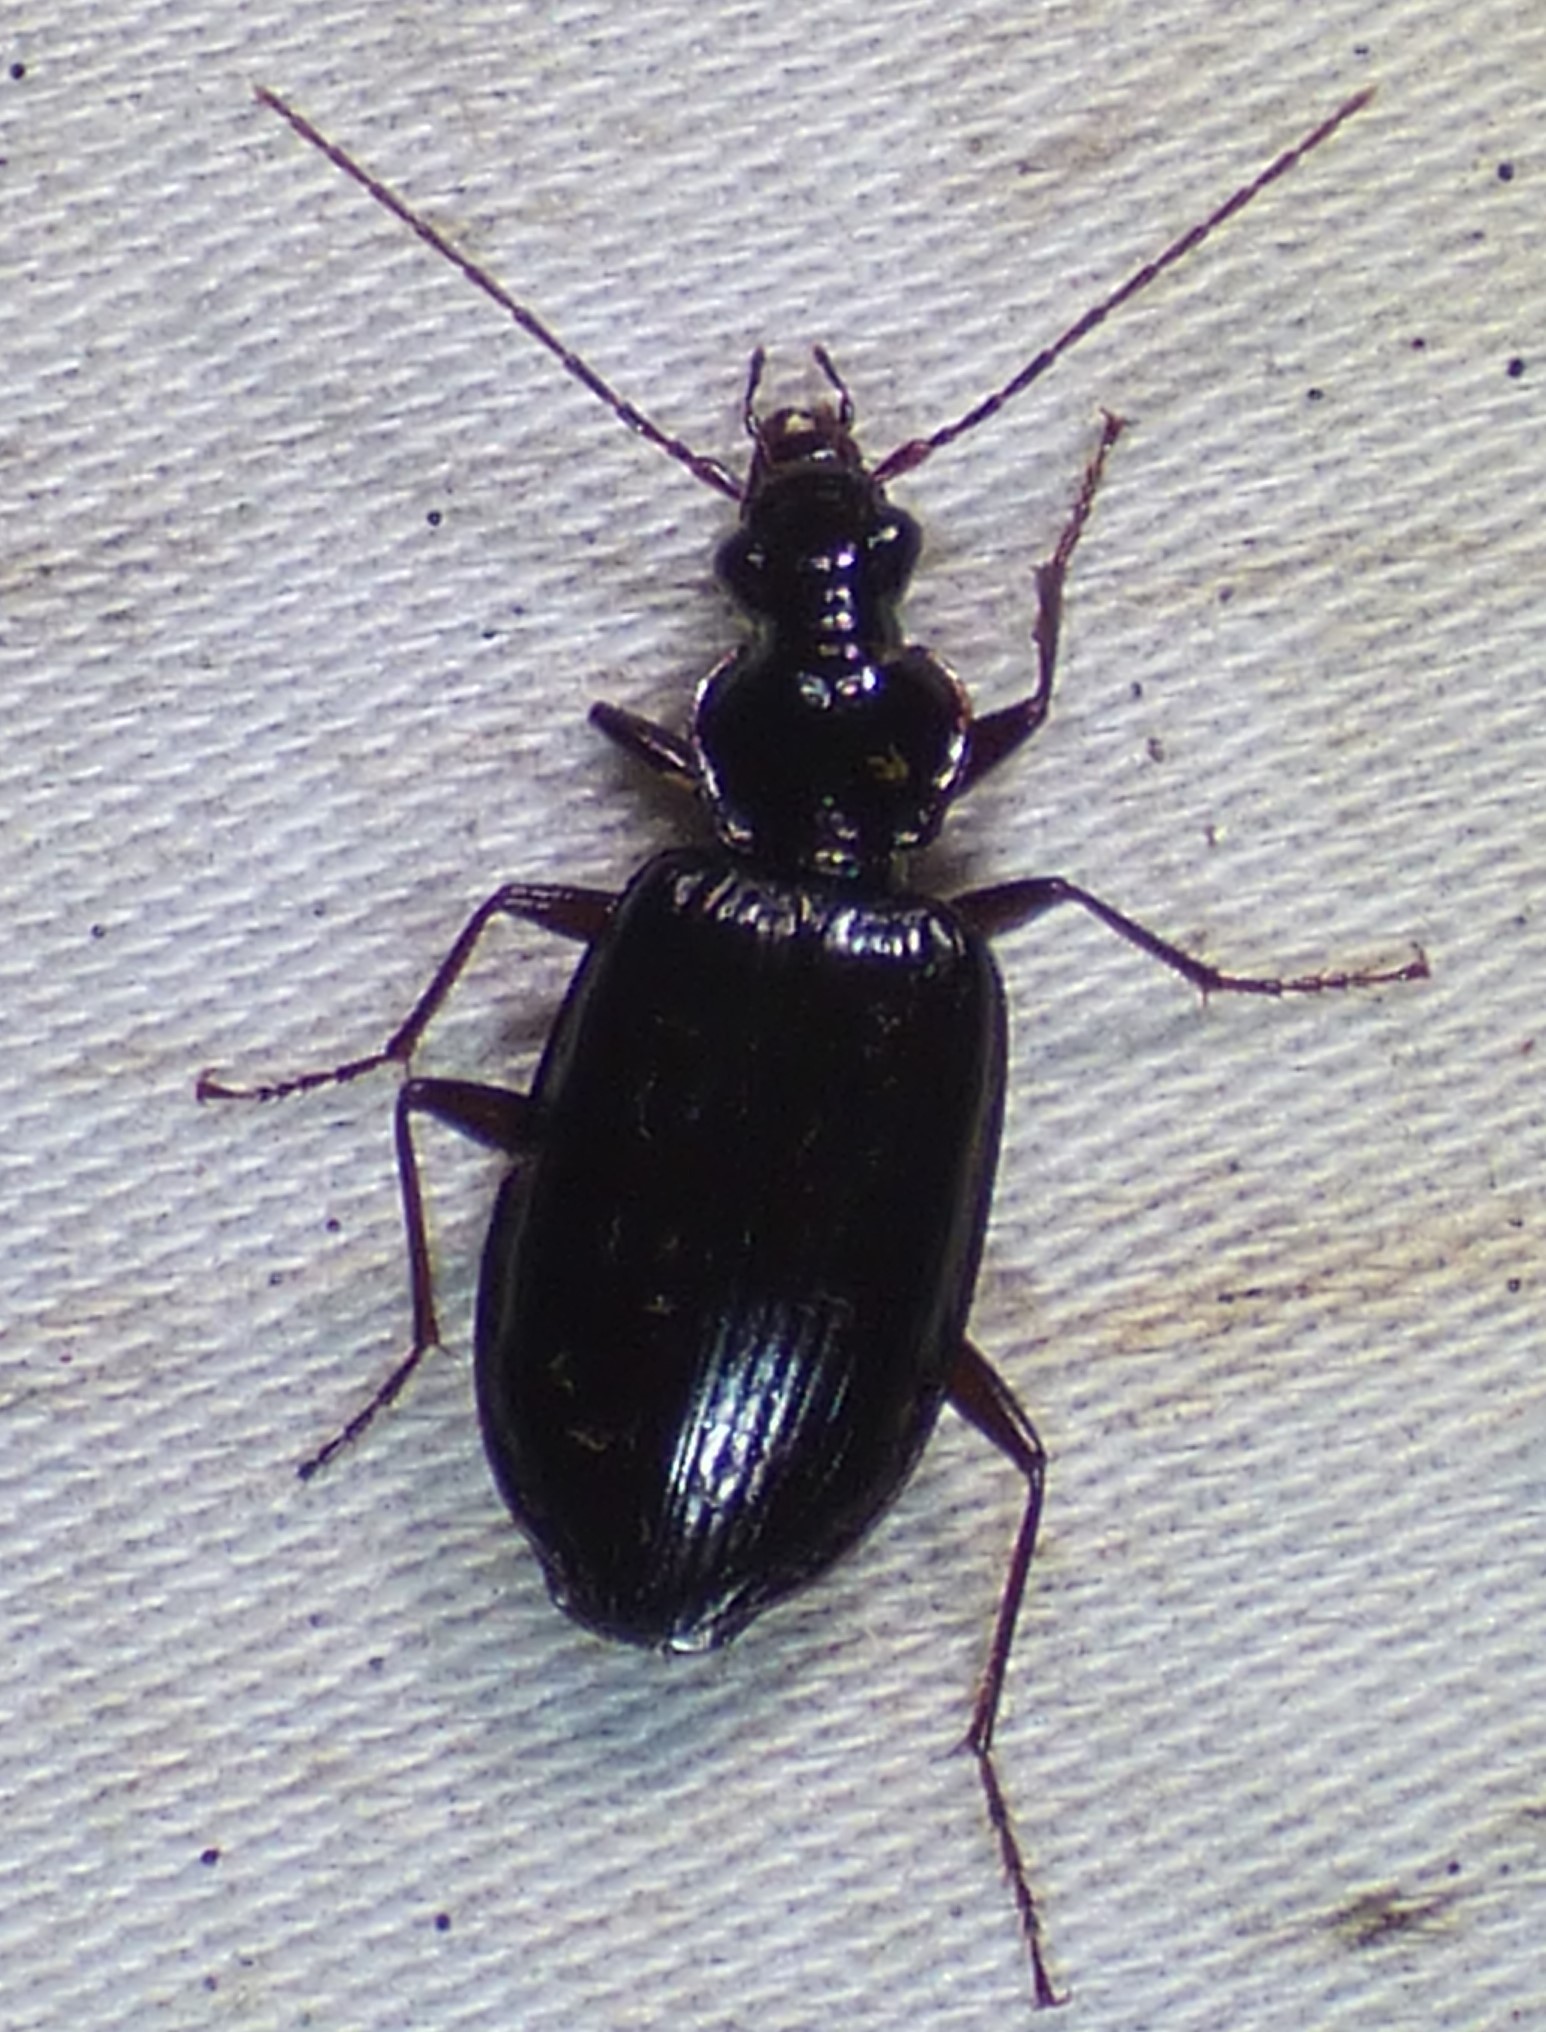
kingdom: Animalia
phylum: Arthropoda
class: Insecta
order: Coleoptera
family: Carabidae
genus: Platynus
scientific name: Platynus cincticollis
